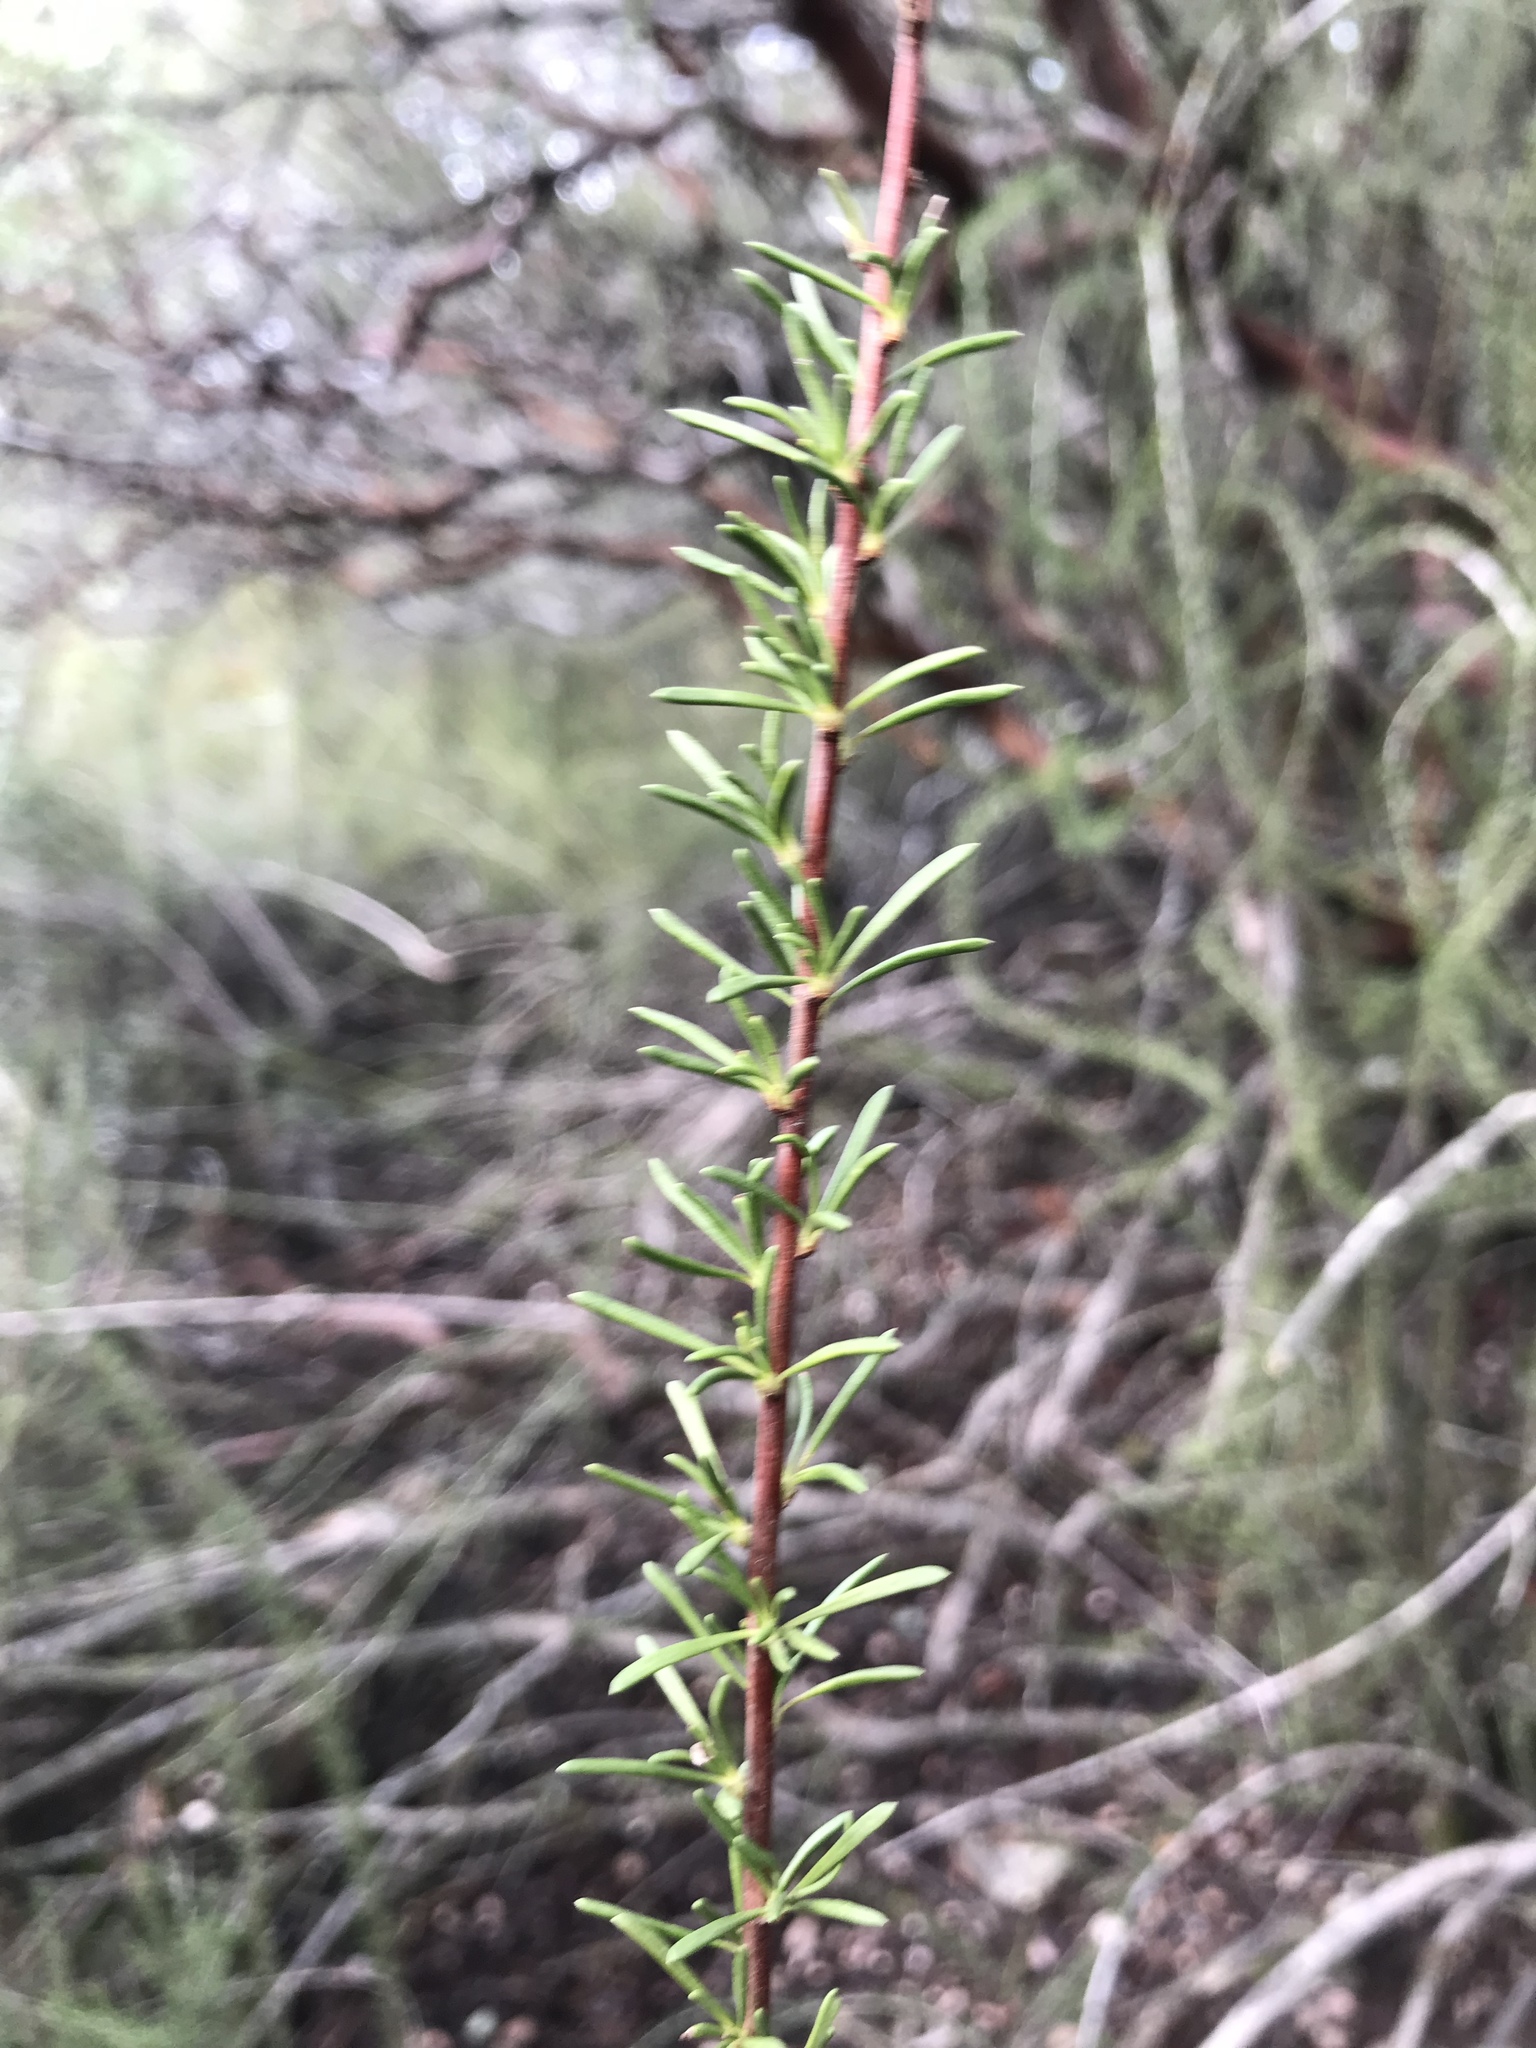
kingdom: Plantae
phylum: Tracheophyta
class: Magnoliopsida
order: Rosales
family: Rosaceae
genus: Adenostoma
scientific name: Adenostoma fasciculatum
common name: Chamise
